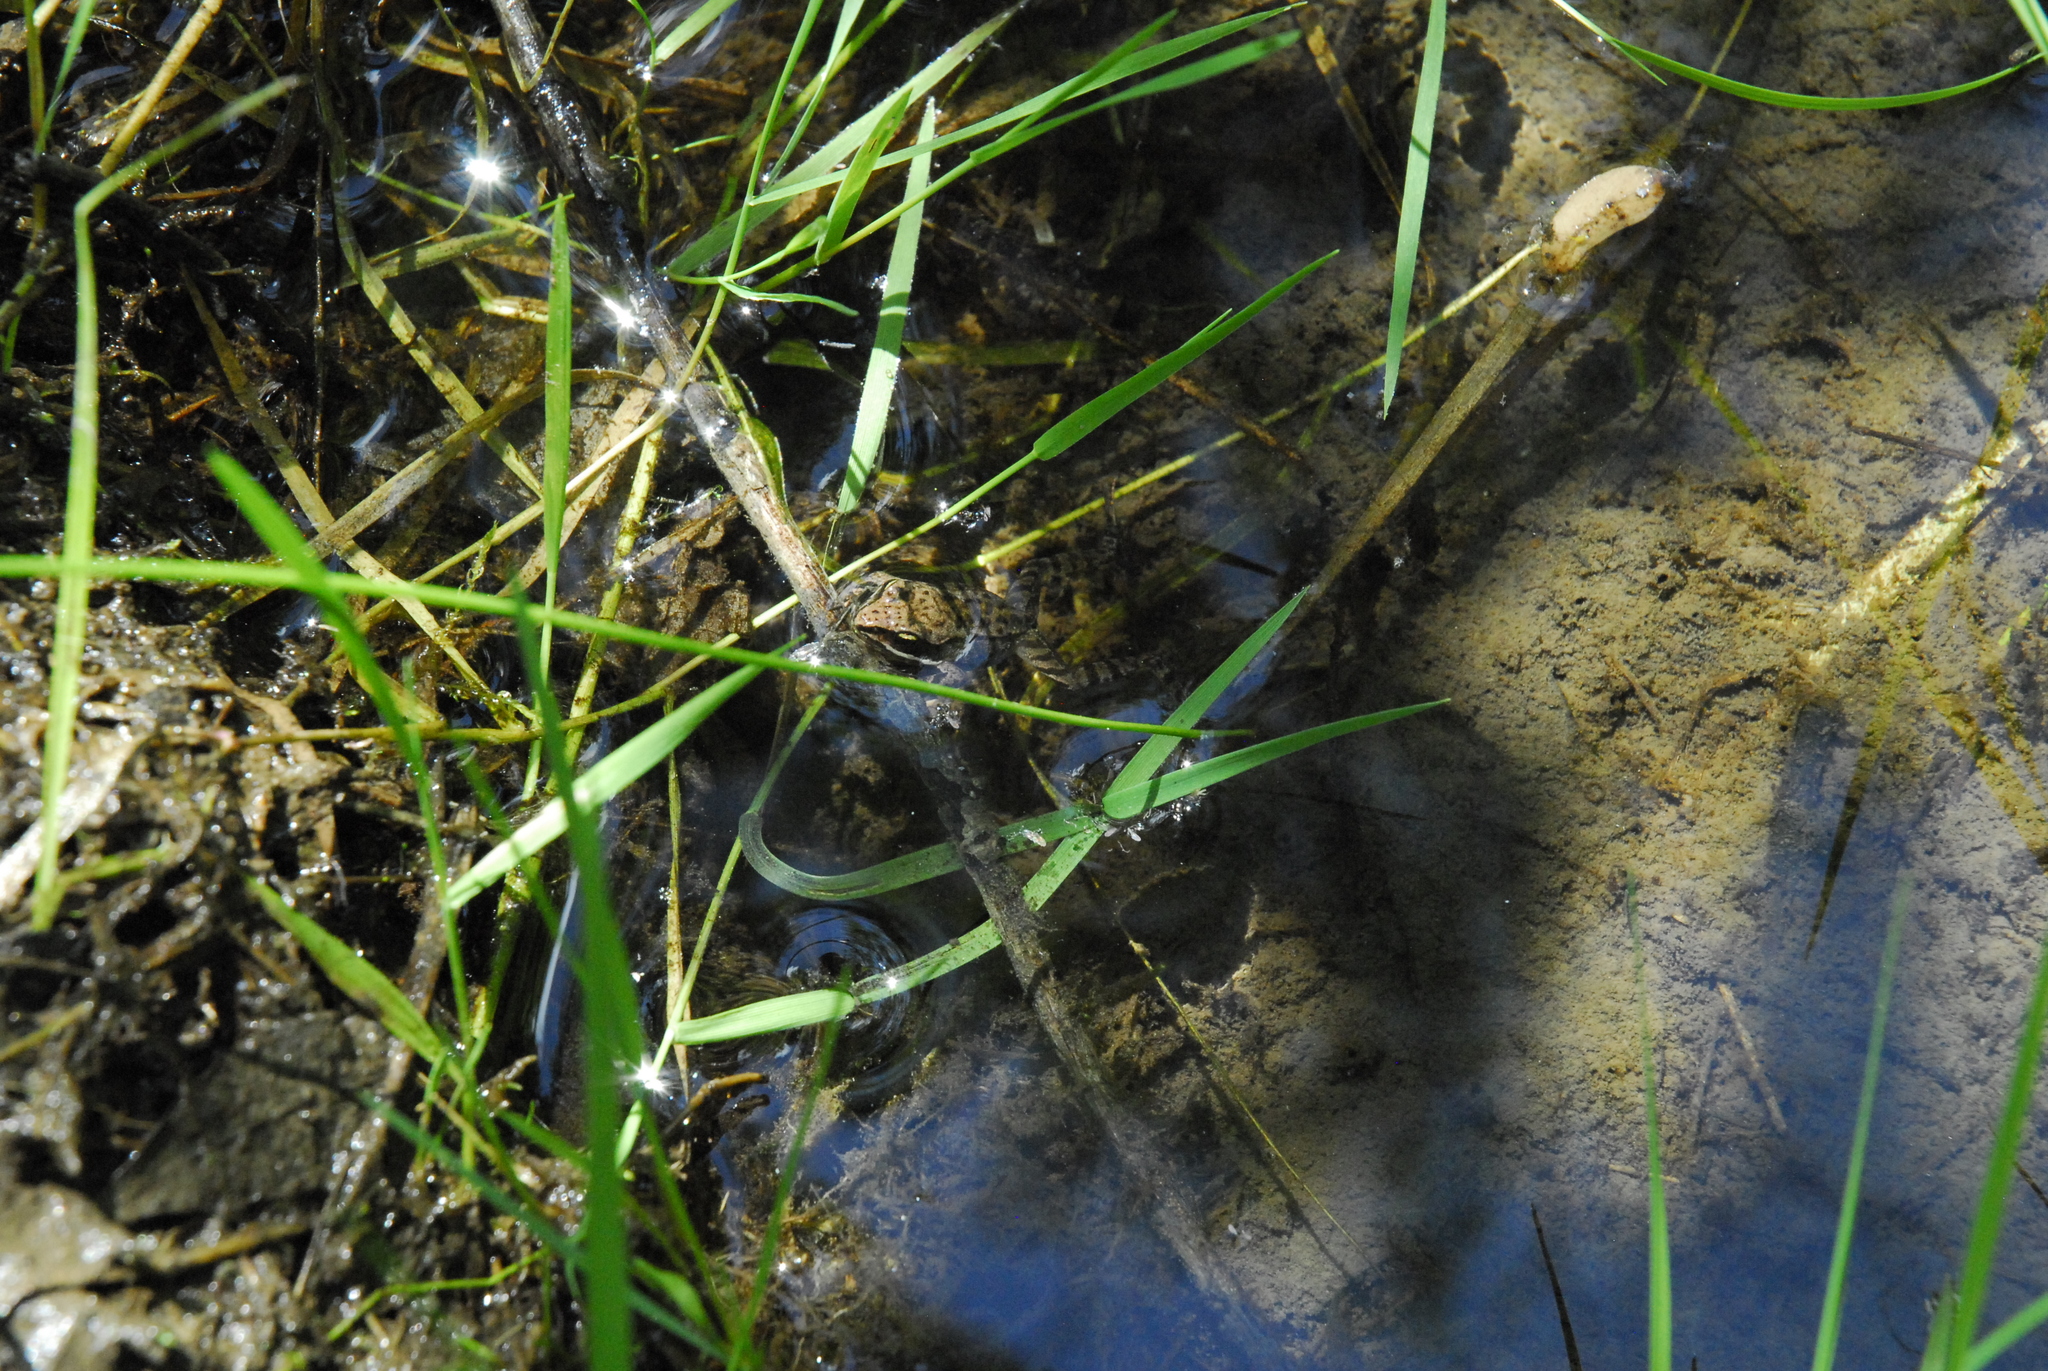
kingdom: Animalia
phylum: Chordata
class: Amphibia
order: Anura
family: Ranidae
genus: Lithobates
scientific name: Lithobates sylvaticus
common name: Wood frog
